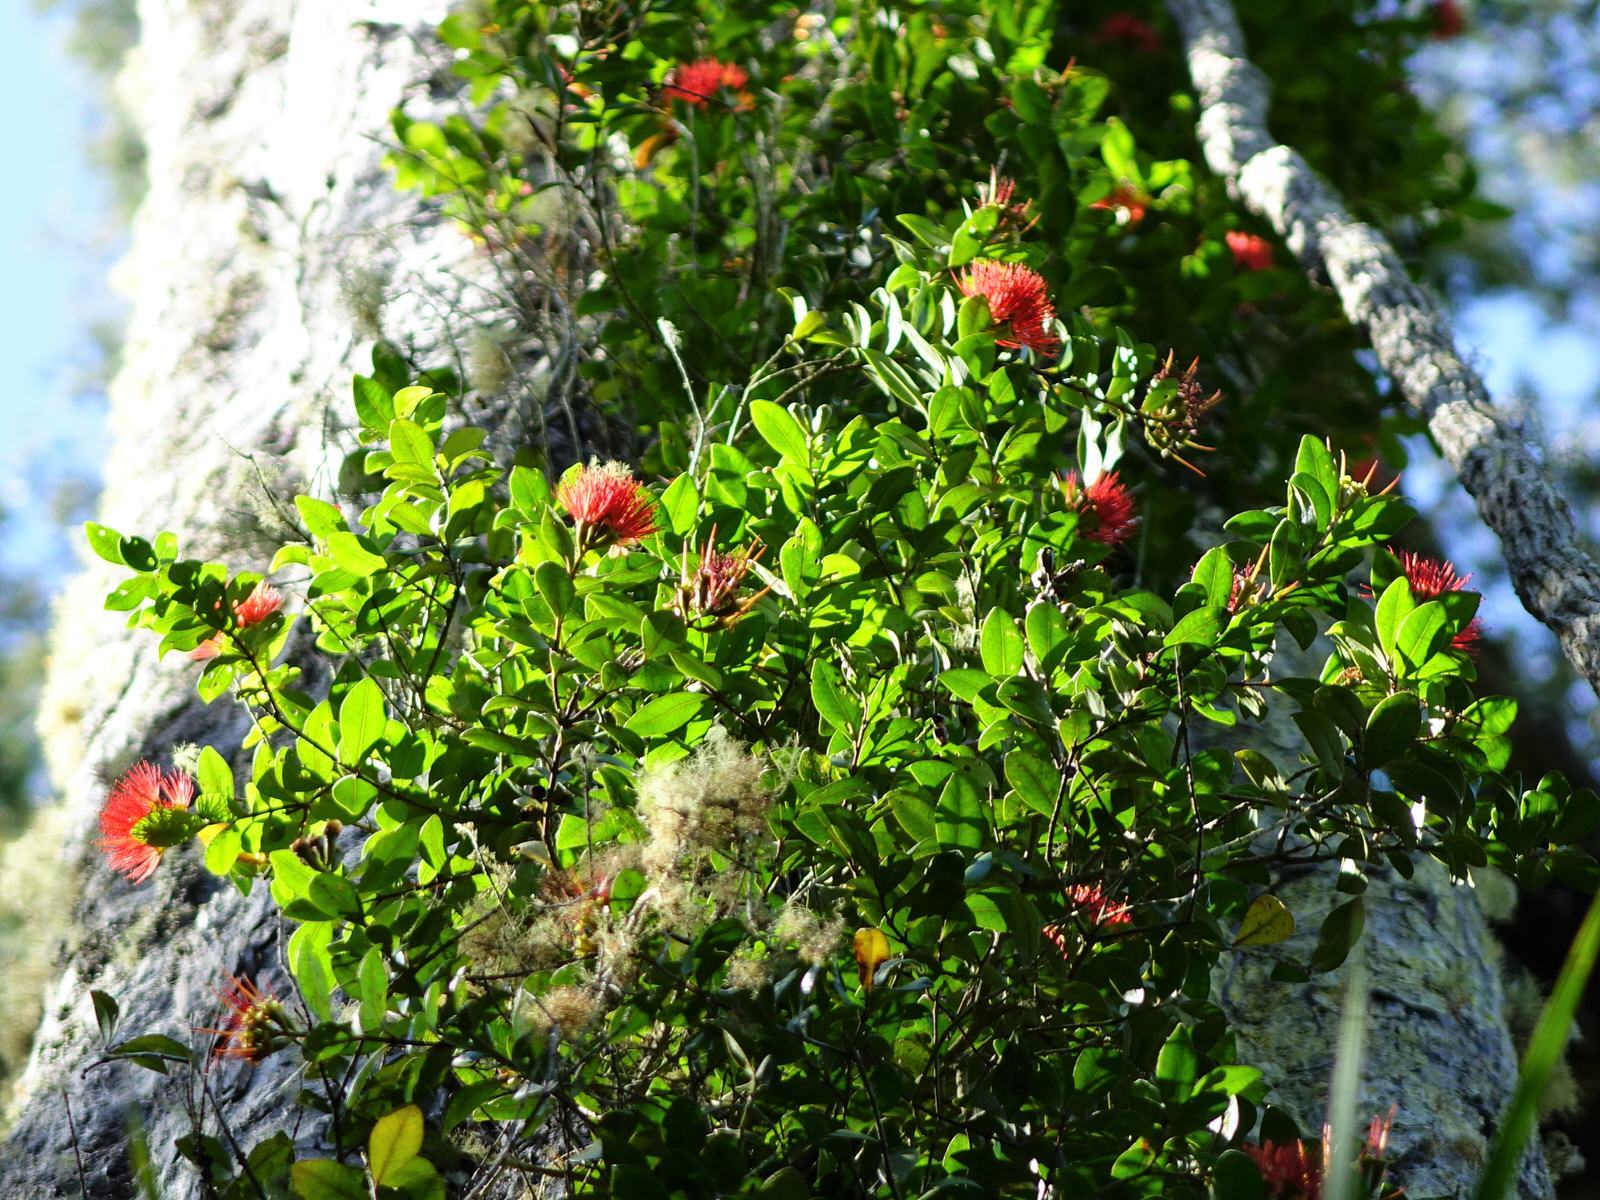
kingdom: Plantae
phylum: Tracheophyta
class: Magnoliopsida
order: Myrtales
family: Myrtaceae
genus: Metrosideros
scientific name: Metrosideros fulgens
